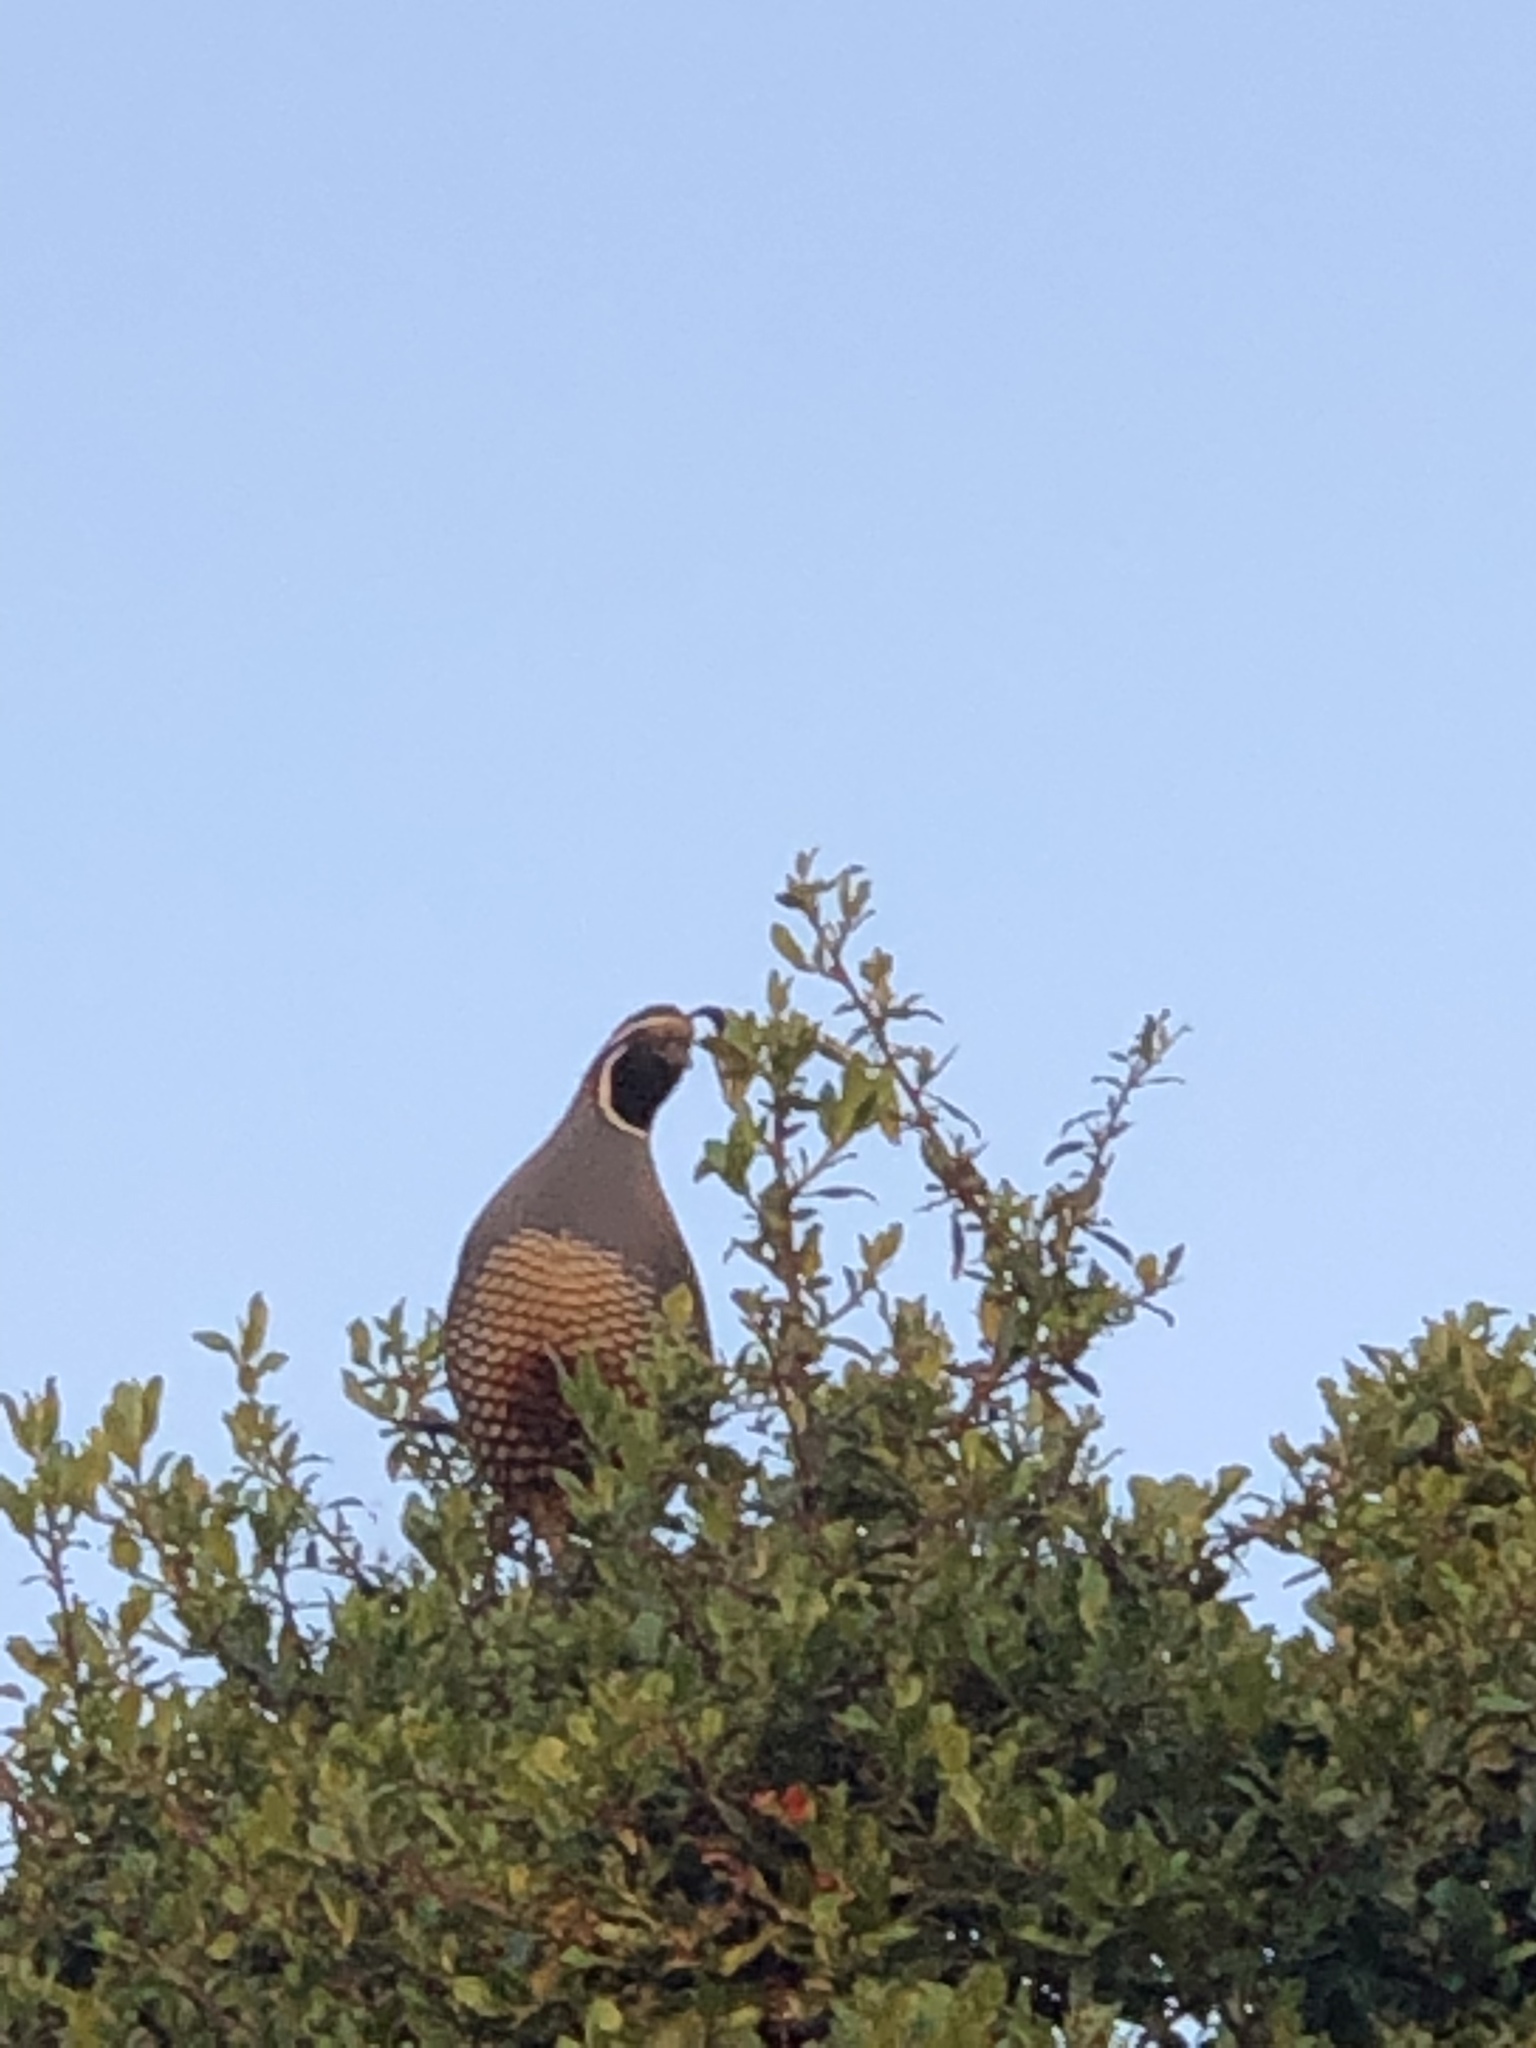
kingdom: Animalia
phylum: Chordata
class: Aves
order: Galliformes
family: Odontophoridae
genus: Callipepla
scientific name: Callipepla californica
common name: California quail
